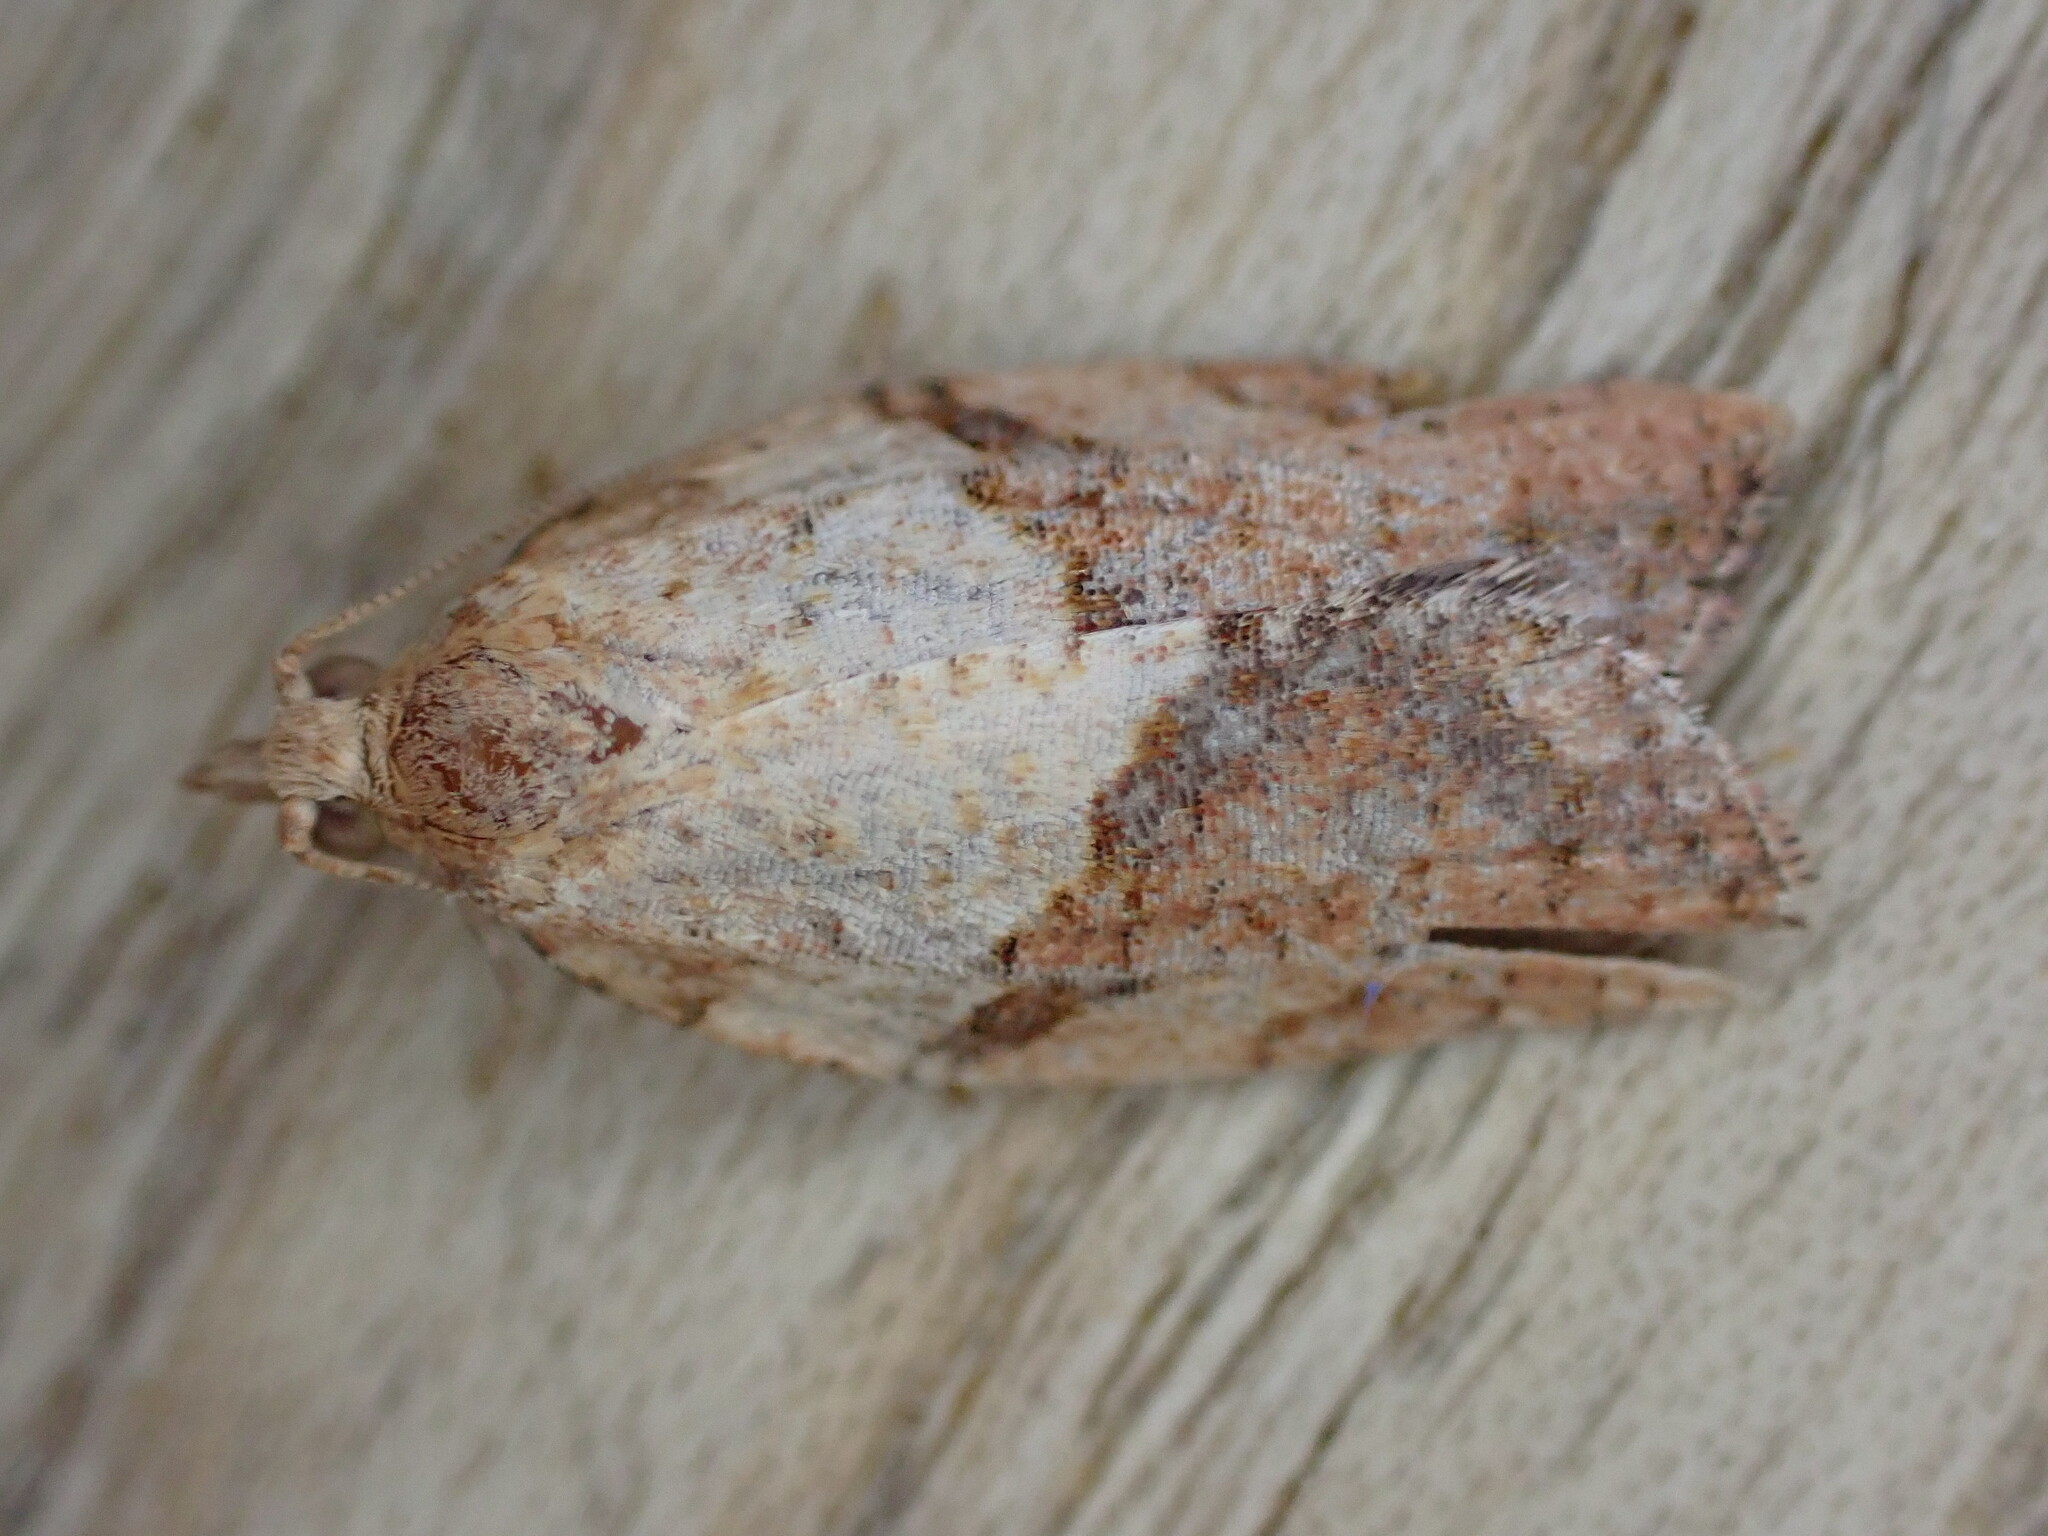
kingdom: Animalia
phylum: Arthropoda
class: Insecta
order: Lepidoptera
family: Tortricidae
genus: Epiphyas
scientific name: Epiphyas postvittana
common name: Light brown apple moth
